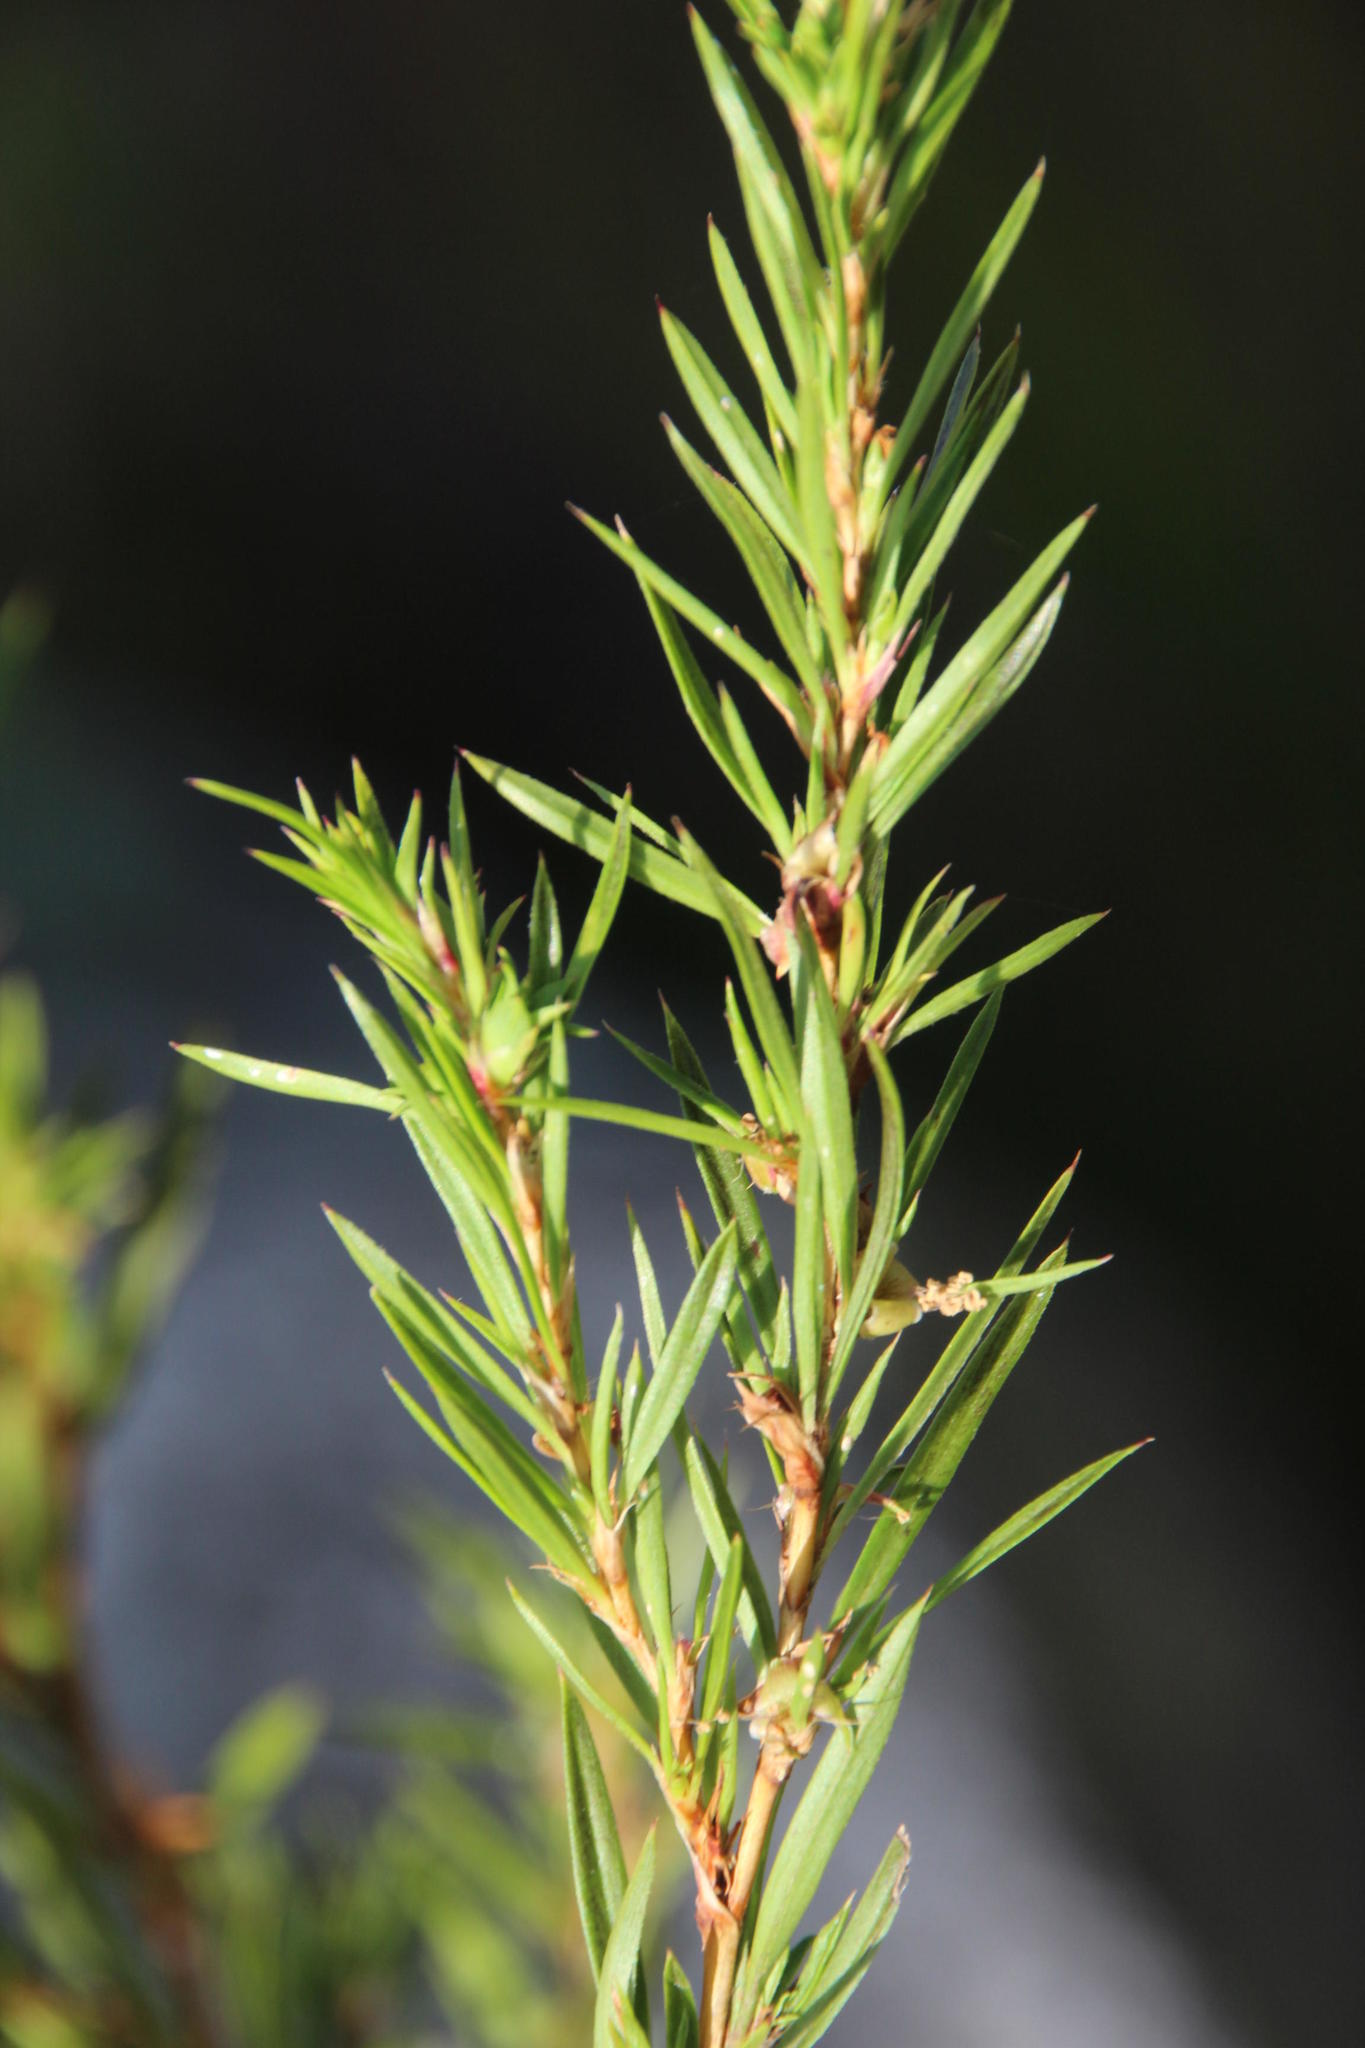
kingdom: Plantae
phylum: Tracheophyta
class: Magnoliopsida
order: Rosales
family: Rosaceae
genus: Cliffortia
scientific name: Cliffortia strobilifera
